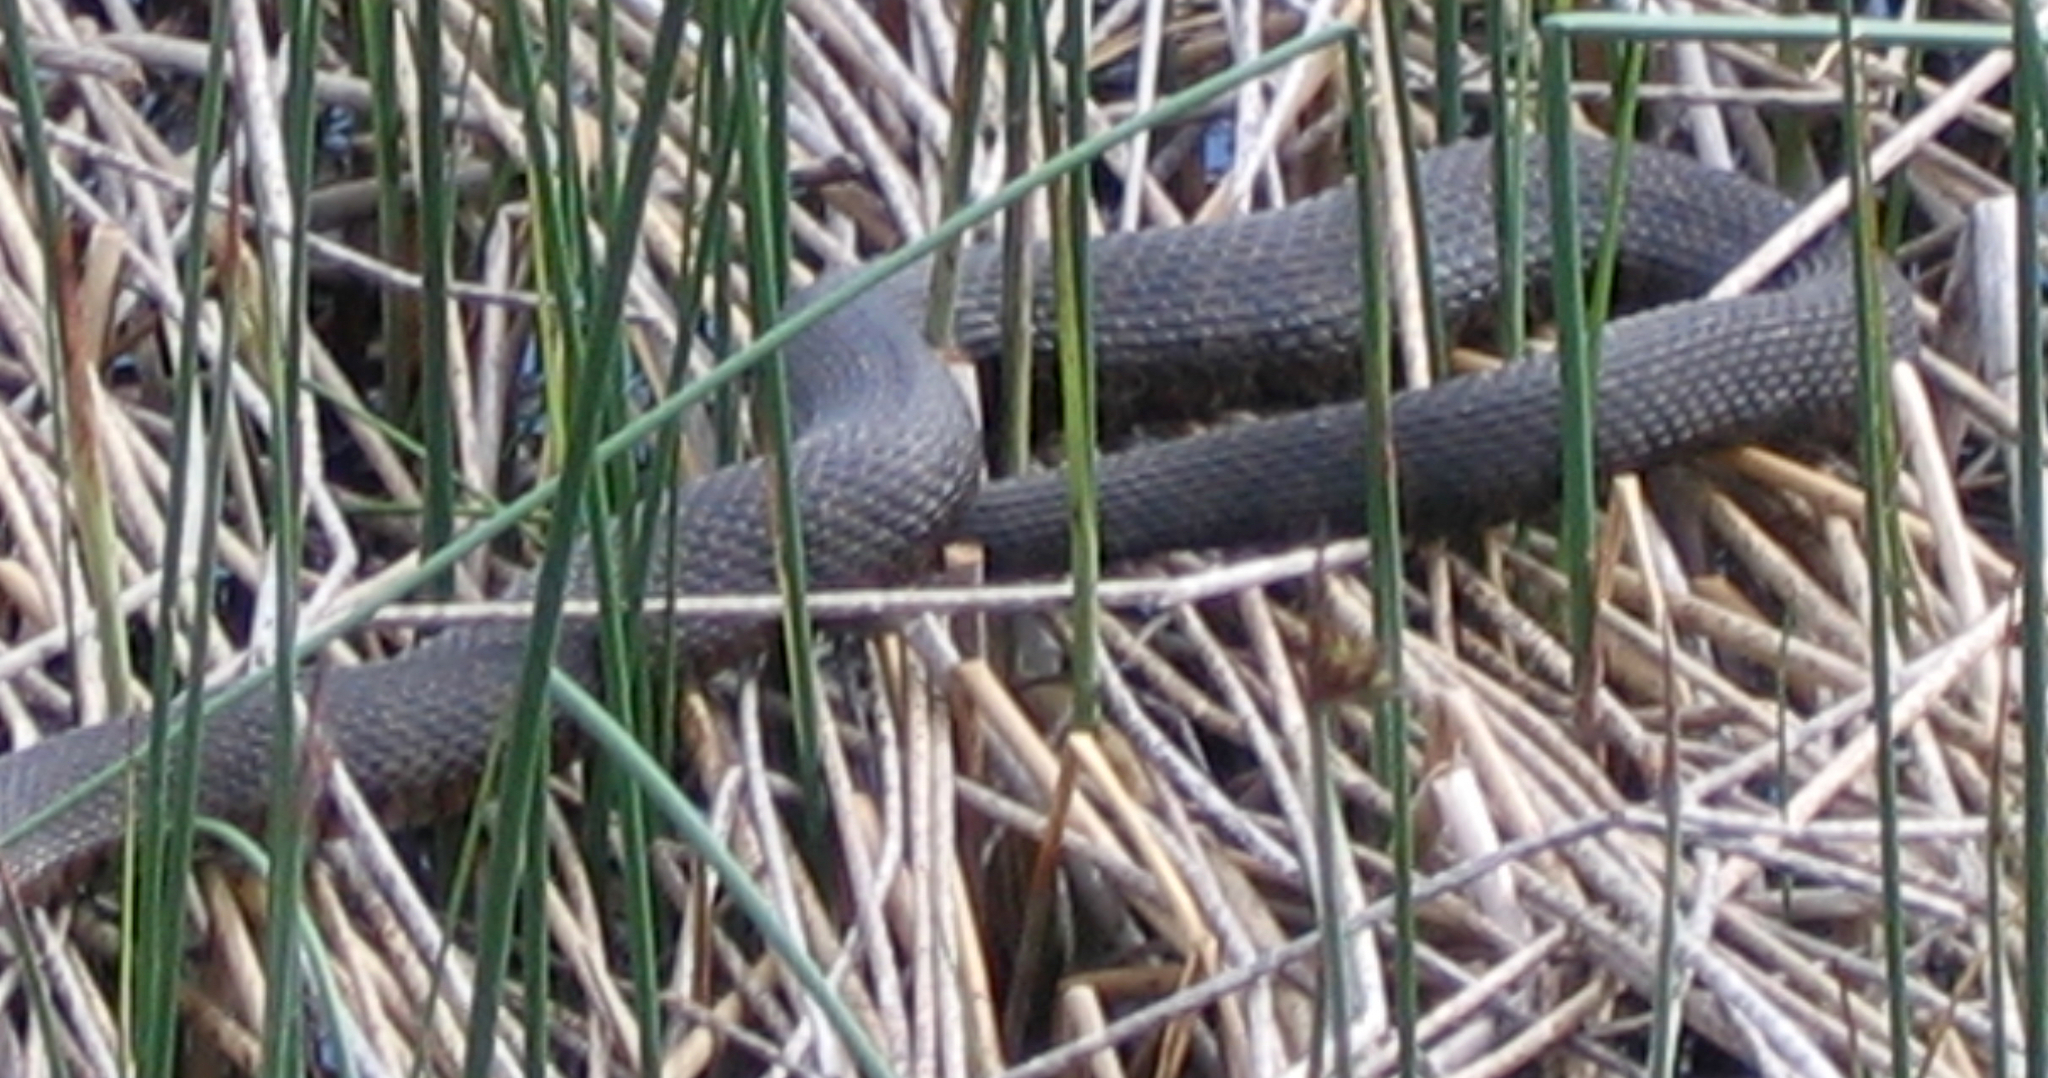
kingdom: Animalia
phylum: Chordata
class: Squamata
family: Colubridae
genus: Nerodia
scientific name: Nerodia sipedon
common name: Northern water snake
